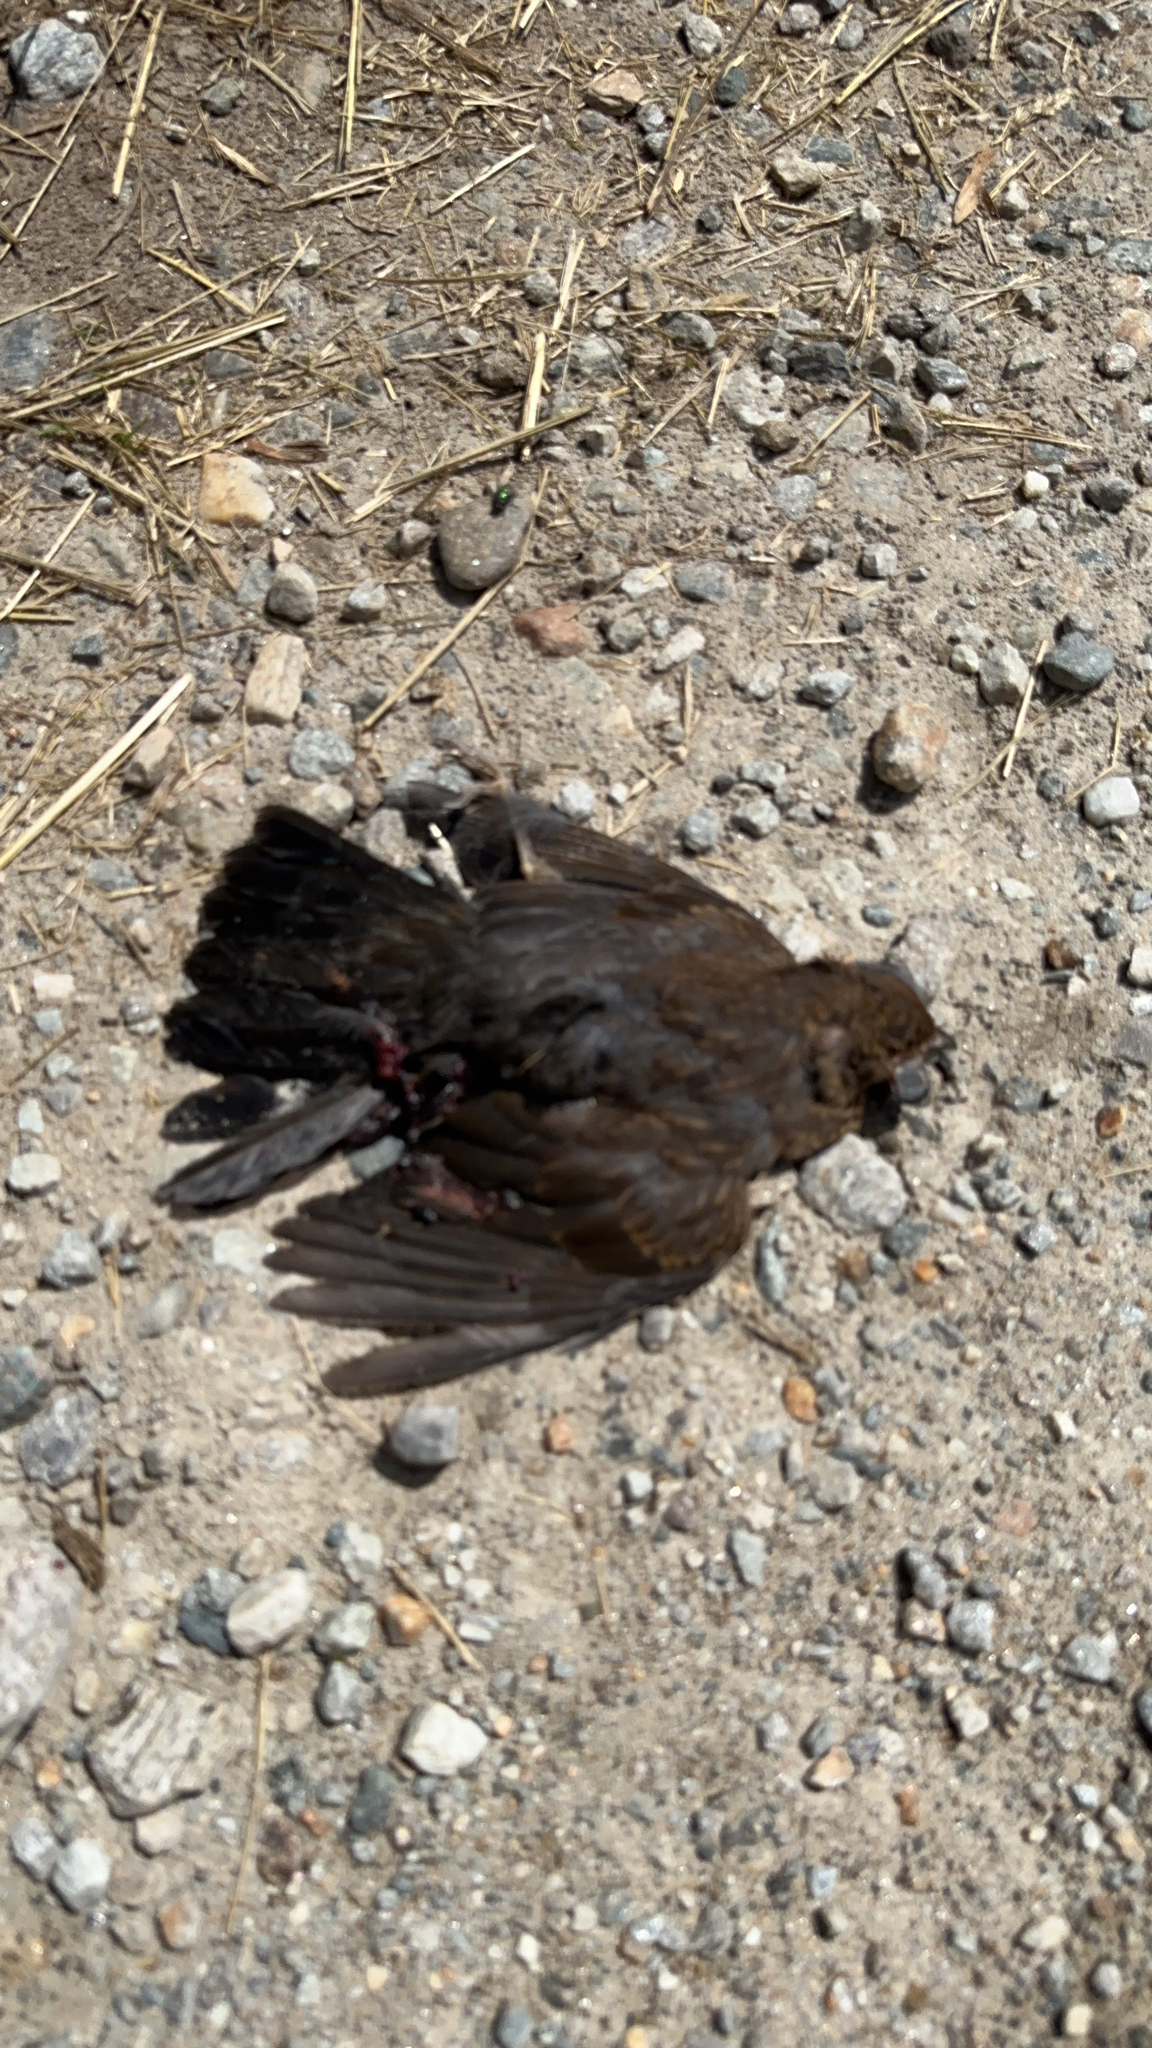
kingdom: Animalia
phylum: Chordata
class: Aves
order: Passeriformes
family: Turdidae
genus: Turdus
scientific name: Turdus merula
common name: Common blackbird
